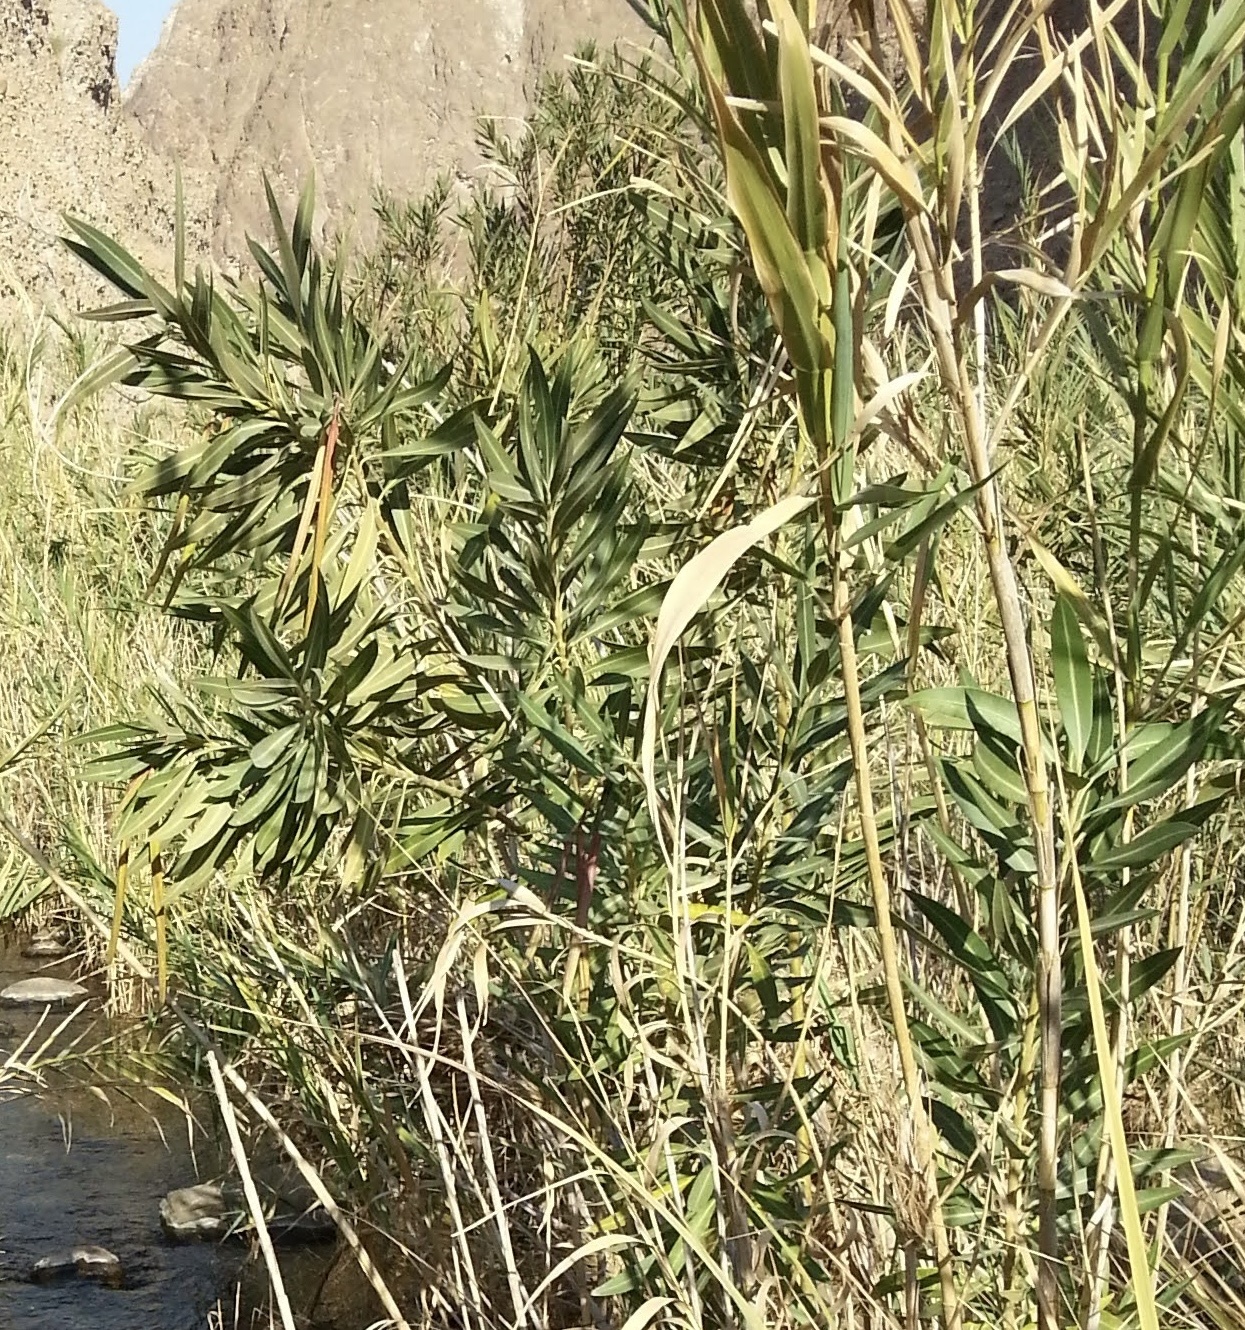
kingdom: Plantae
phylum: Tracheophyta
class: Magnoliopsida
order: Gentianales
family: Apocynaceae
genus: Nerium
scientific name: Nerium oleander
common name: Oleander
